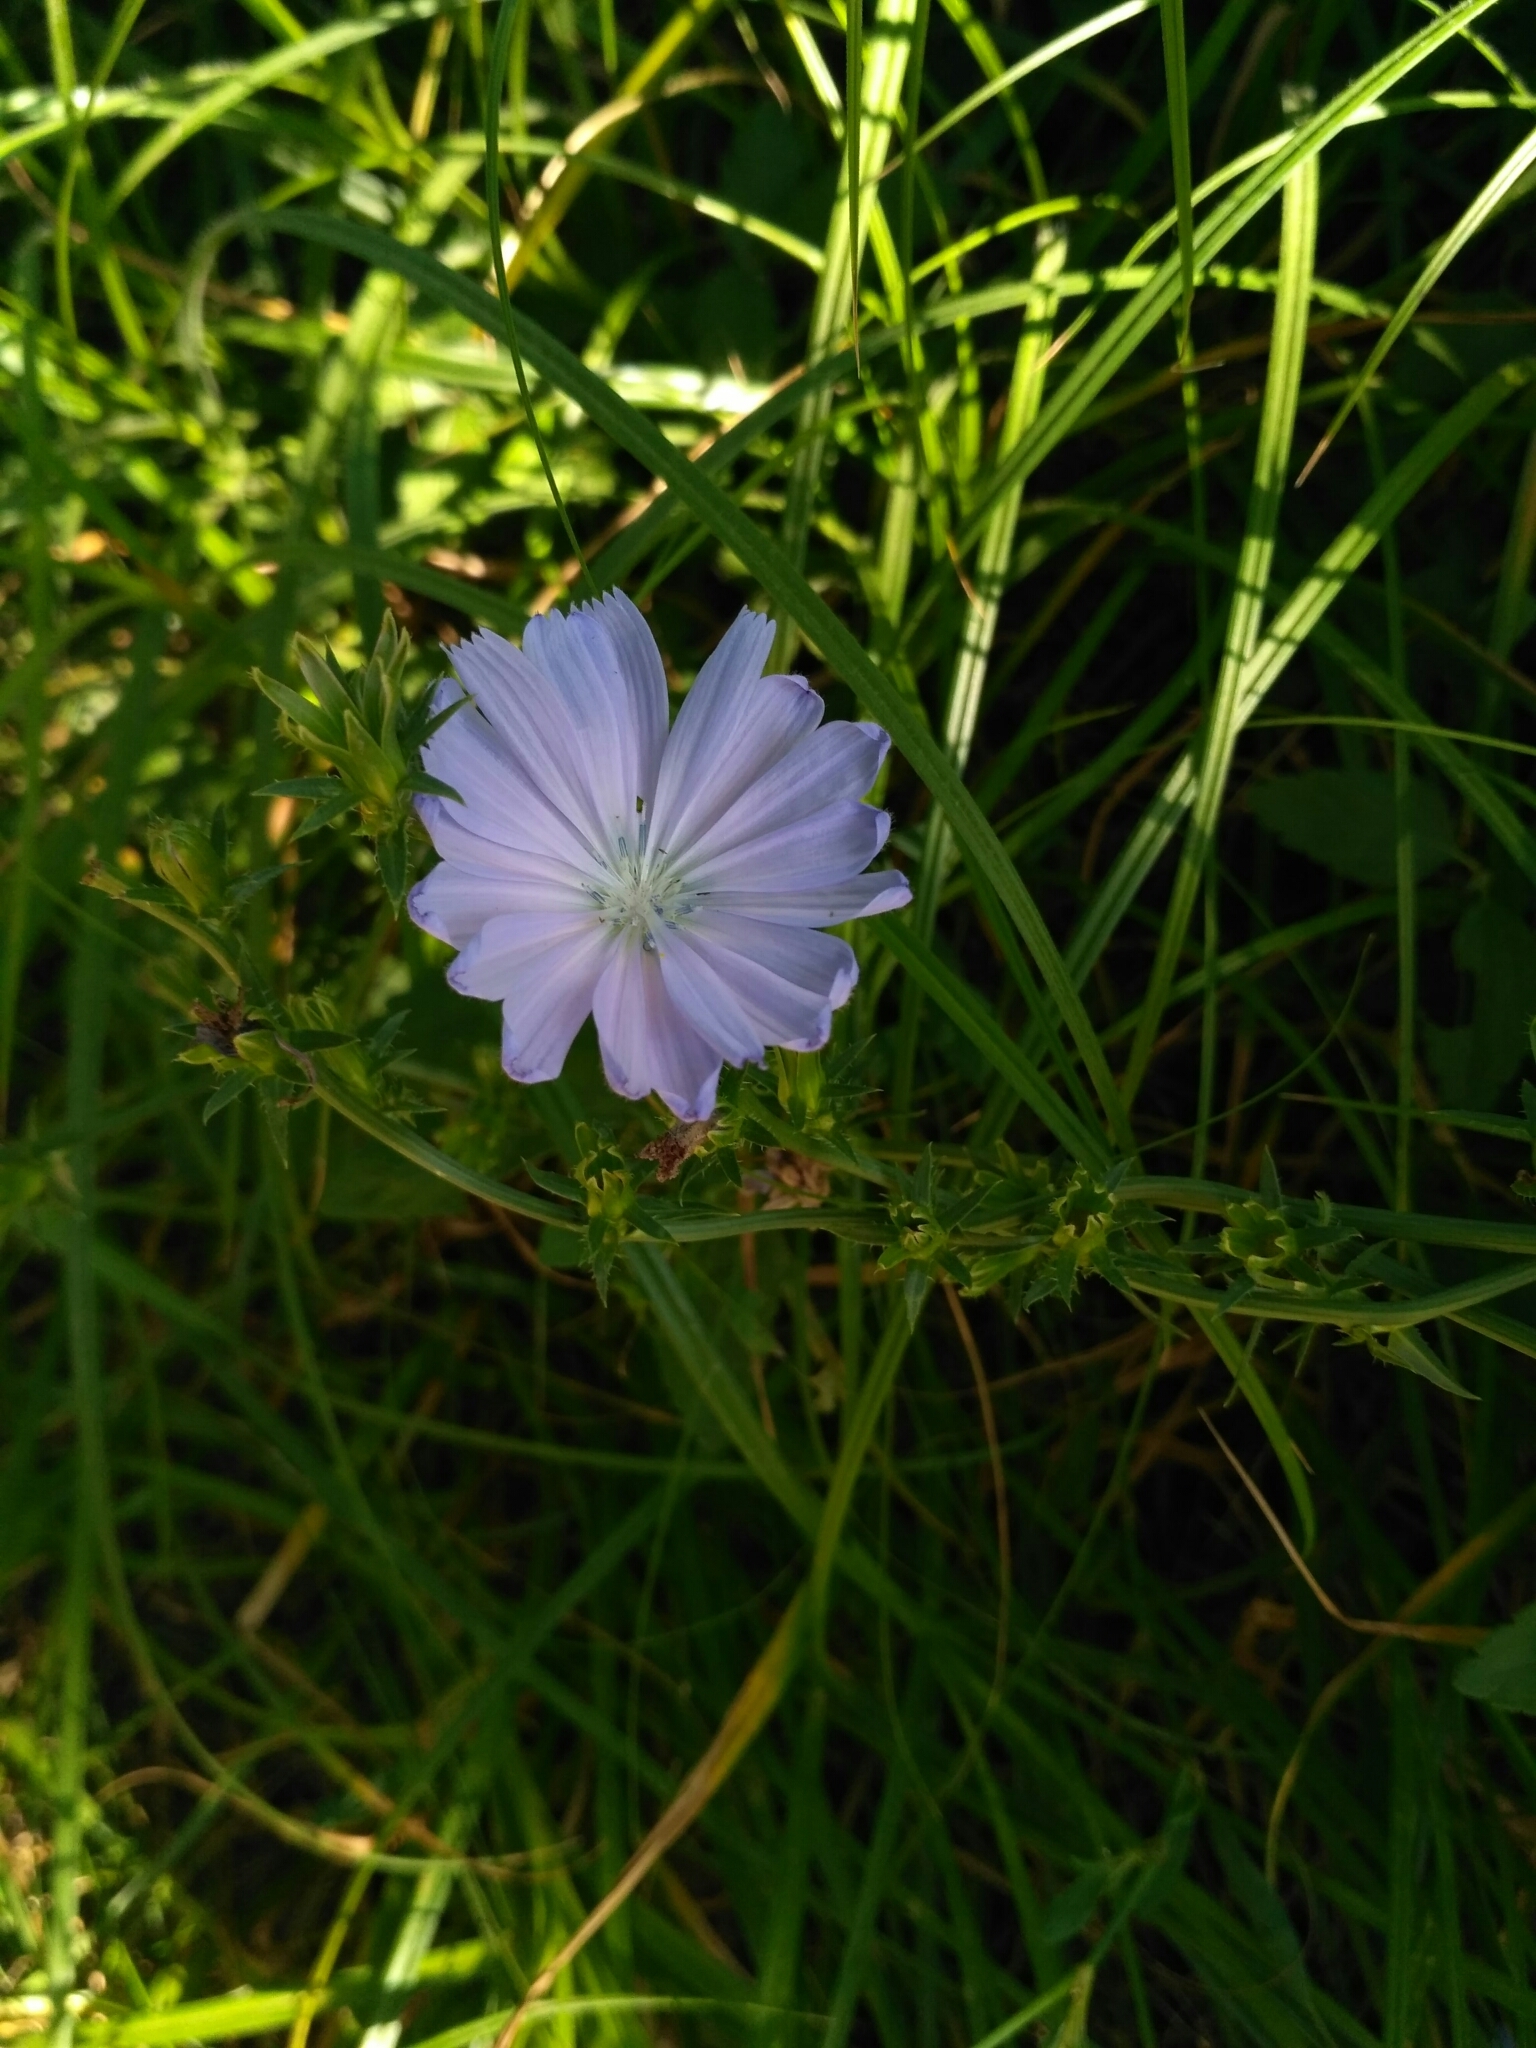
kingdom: Plantae
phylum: Tracheophyta
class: Magnoliopsida
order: Asterales
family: Asteraceae
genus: Cichorium
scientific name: Cichorium intybus
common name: Chicory
